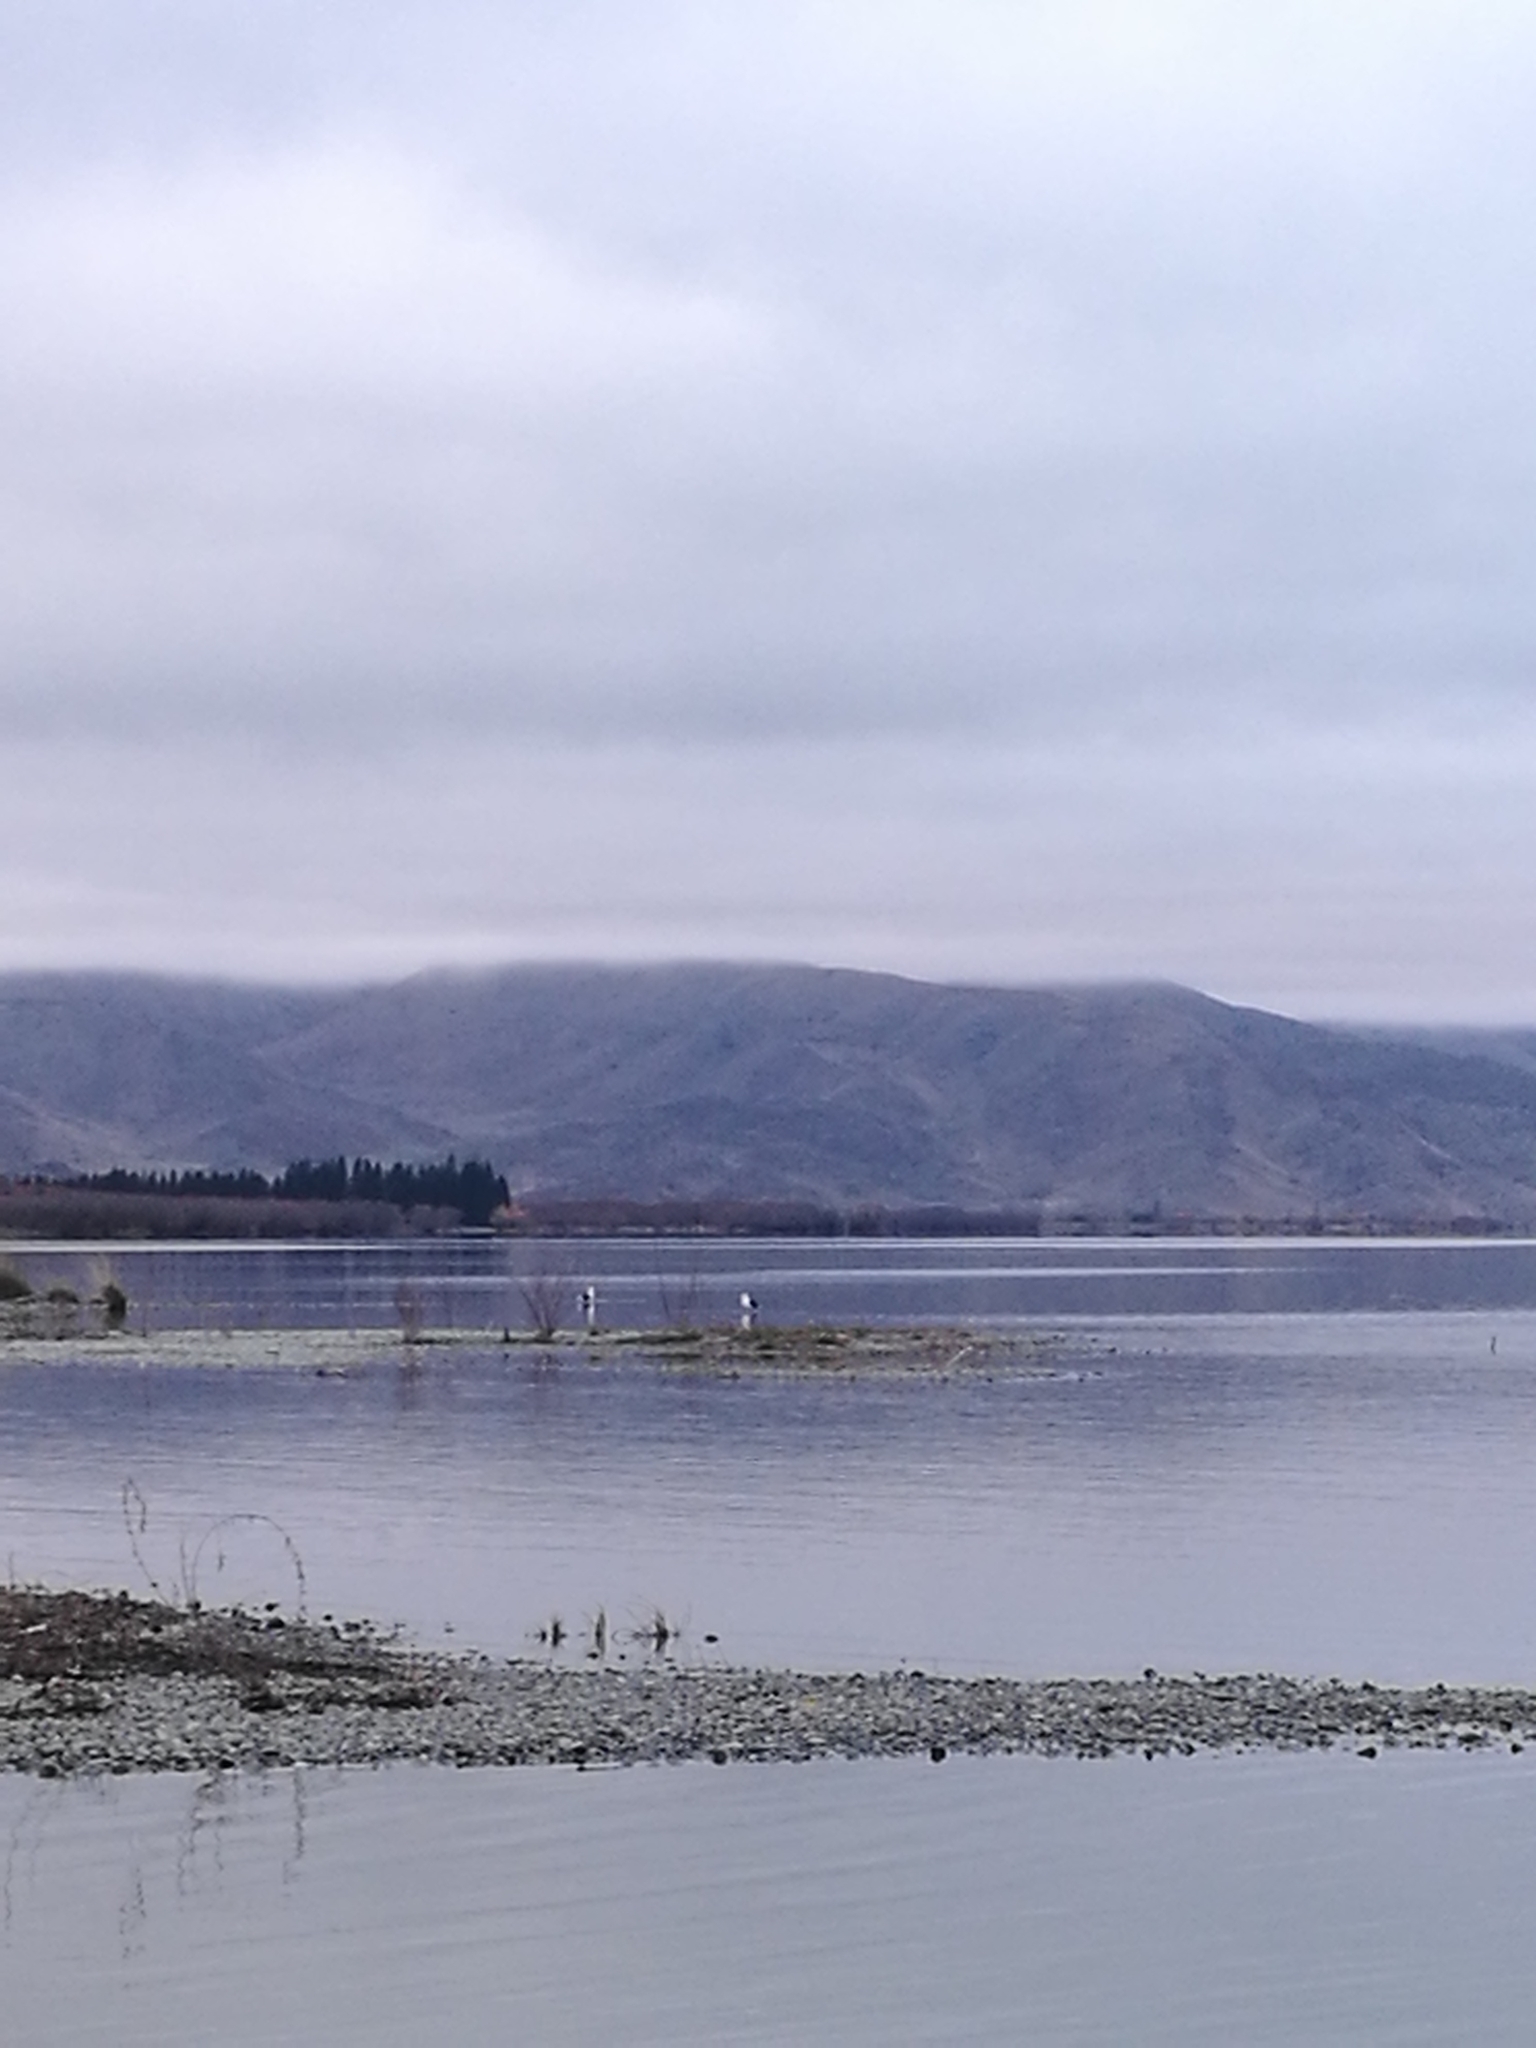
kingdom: Animalia
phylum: Chordata
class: Aves
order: Charadriiformes
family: Laridae
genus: Larus
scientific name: Larus dominicanus
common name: Kelp gull
